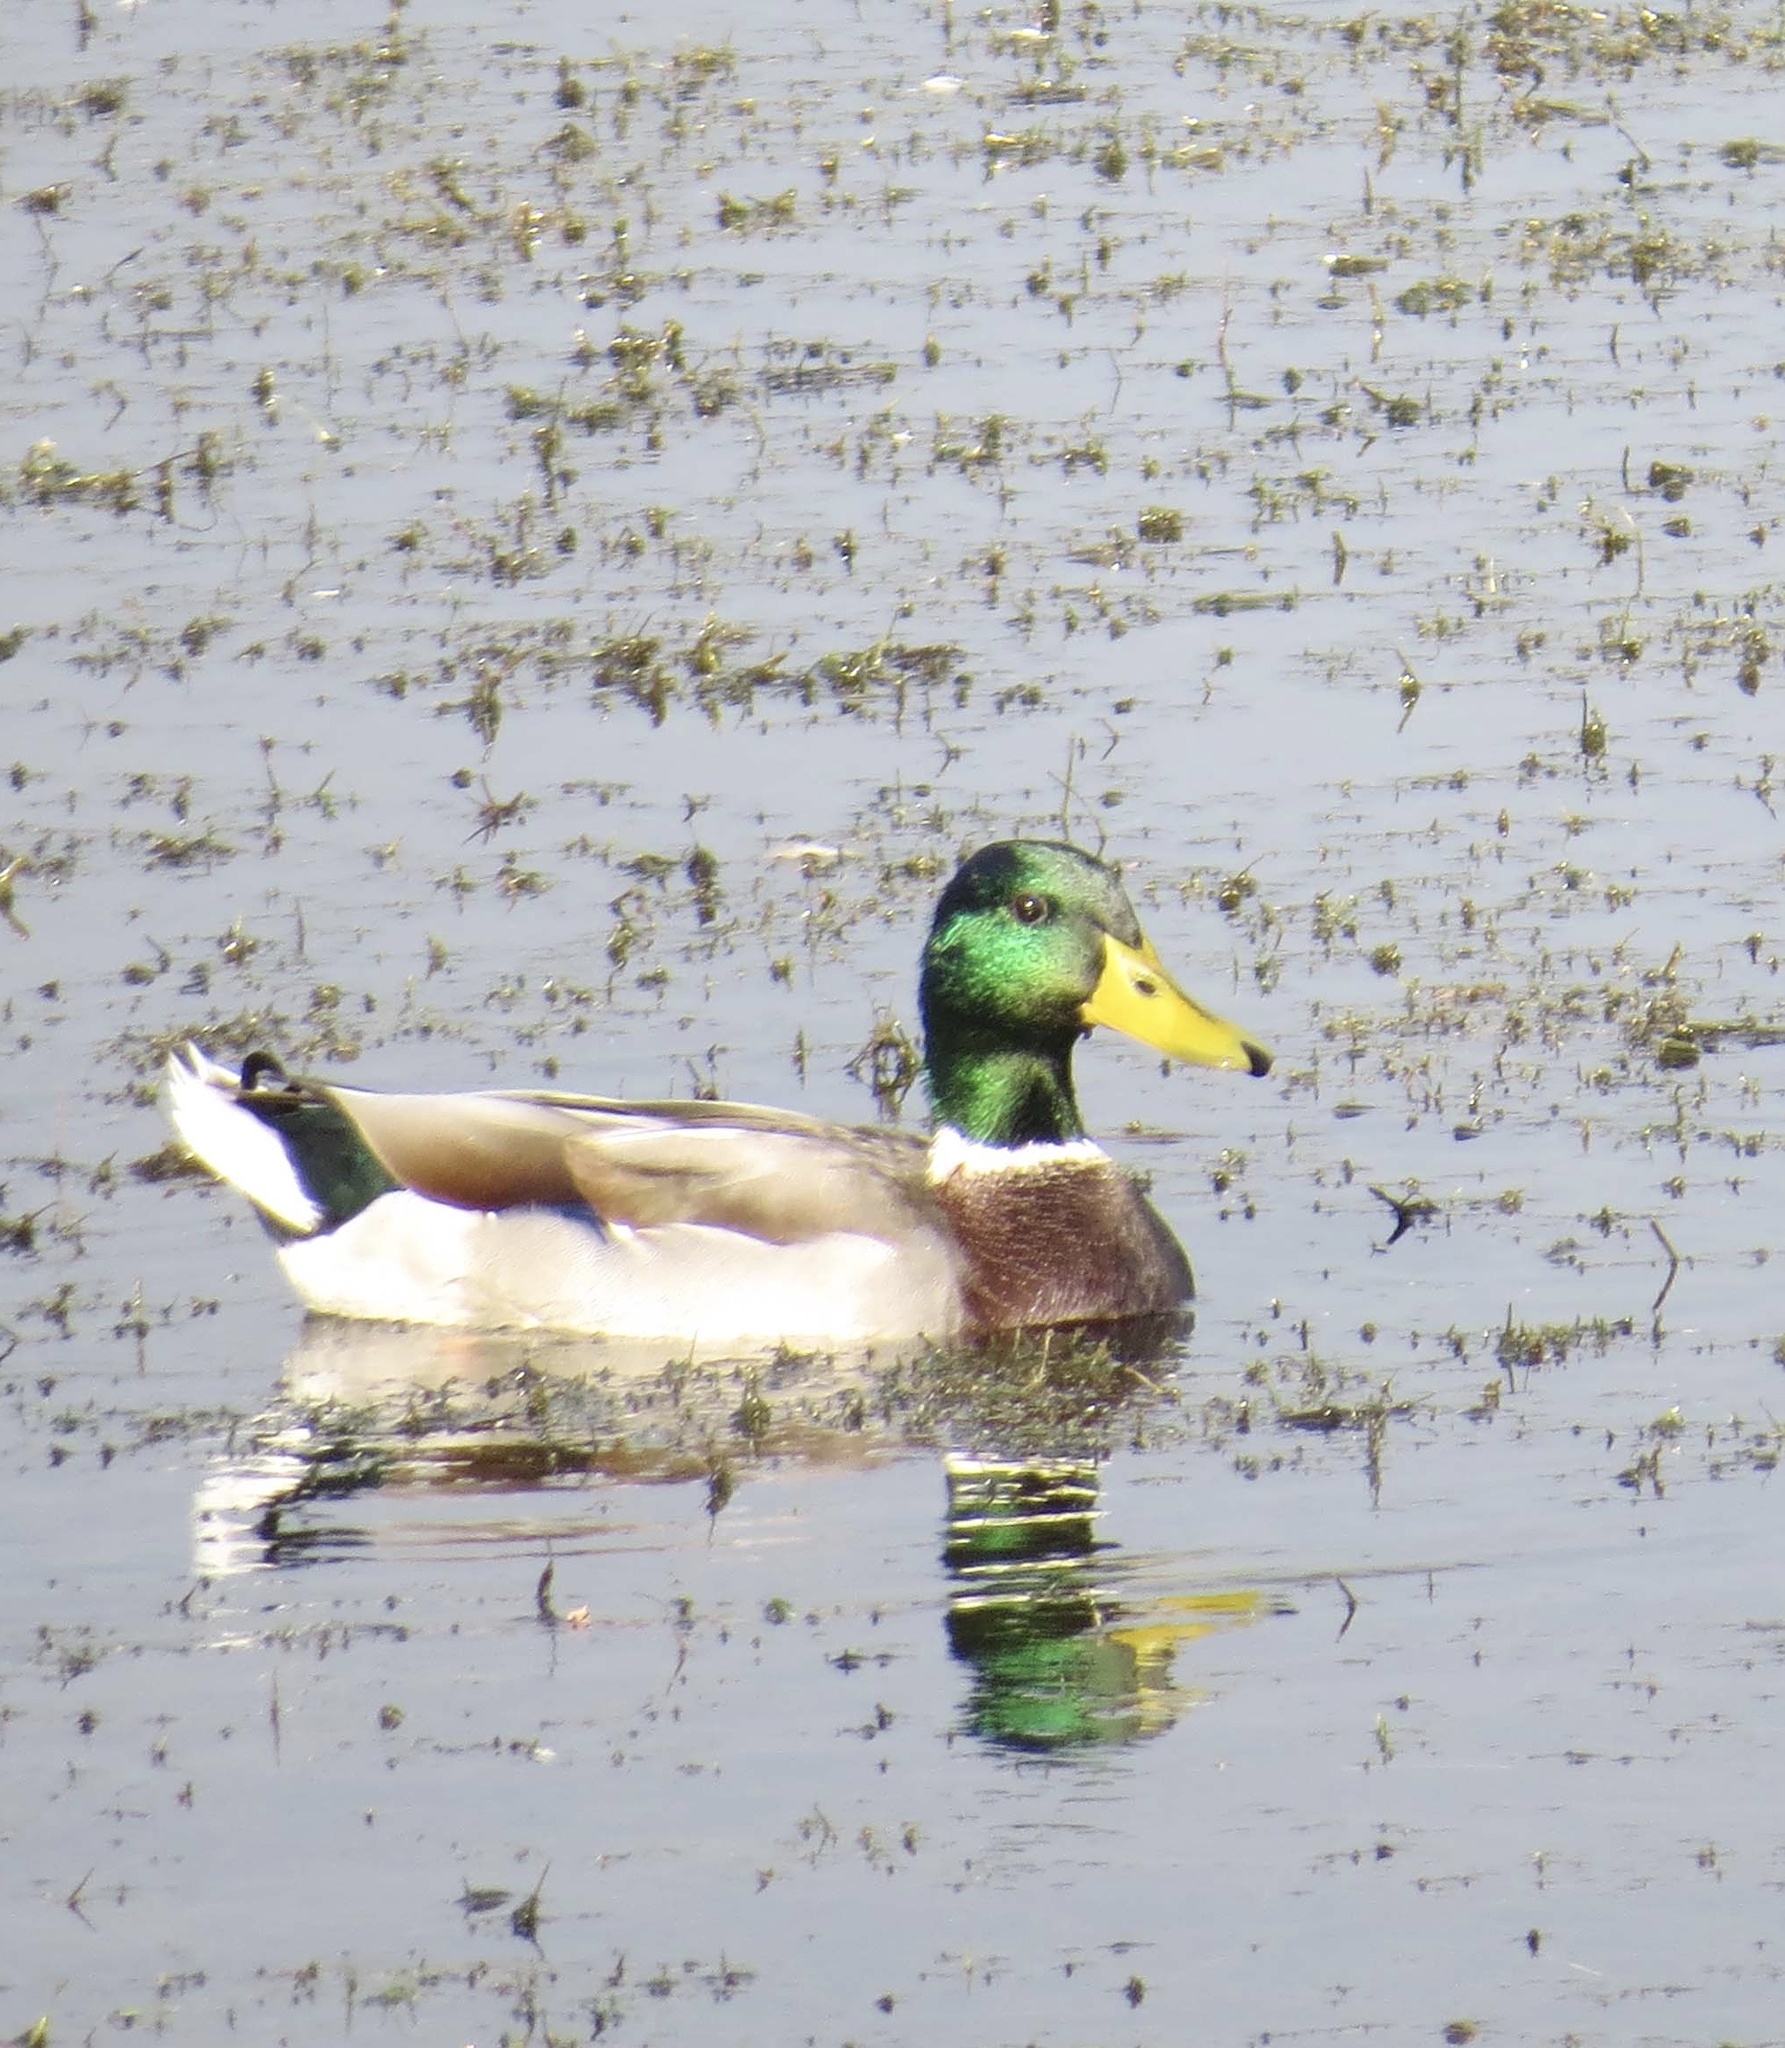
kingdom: Animalia
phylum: Chordata
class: Aves
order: Anseriformes
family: Anatidae
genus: Anas
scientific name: Anas platyrhynchos
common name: Mallard
